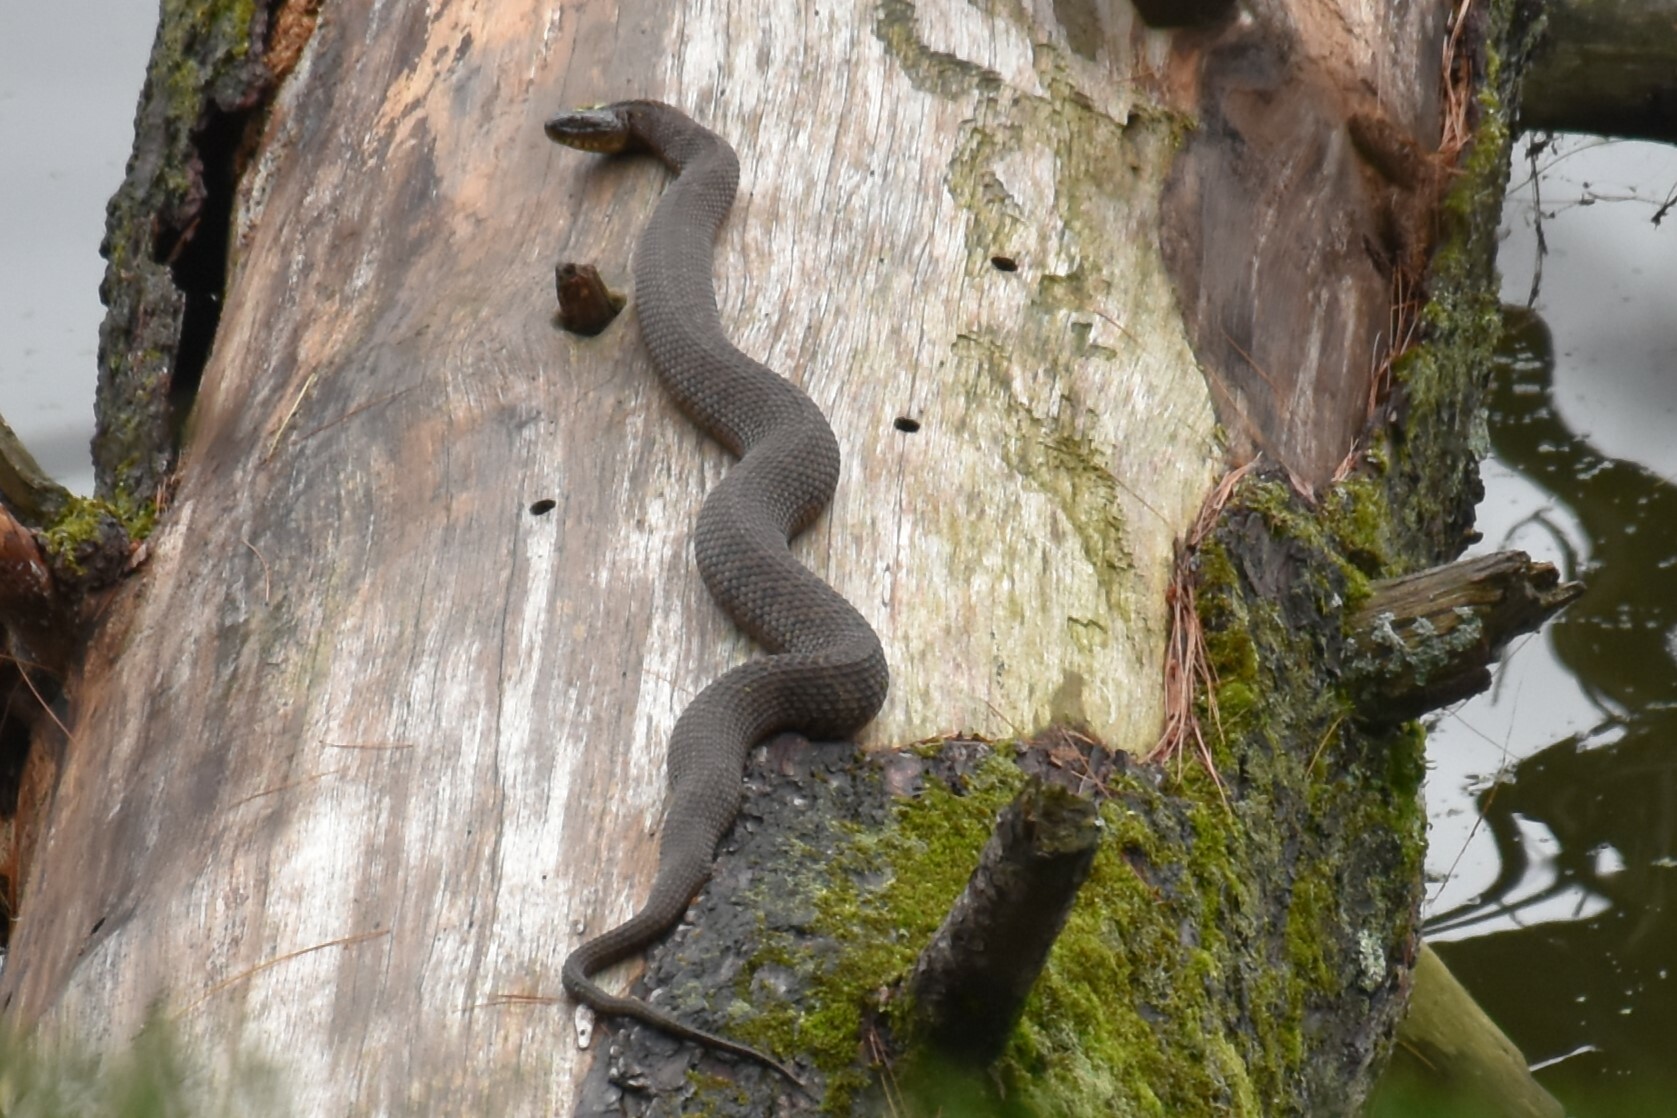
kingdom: Animalia
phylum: Chordata
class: Squamata
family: Colubridae
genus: Nerodia
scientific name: Nerodia sipedon
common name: Northern water snake
